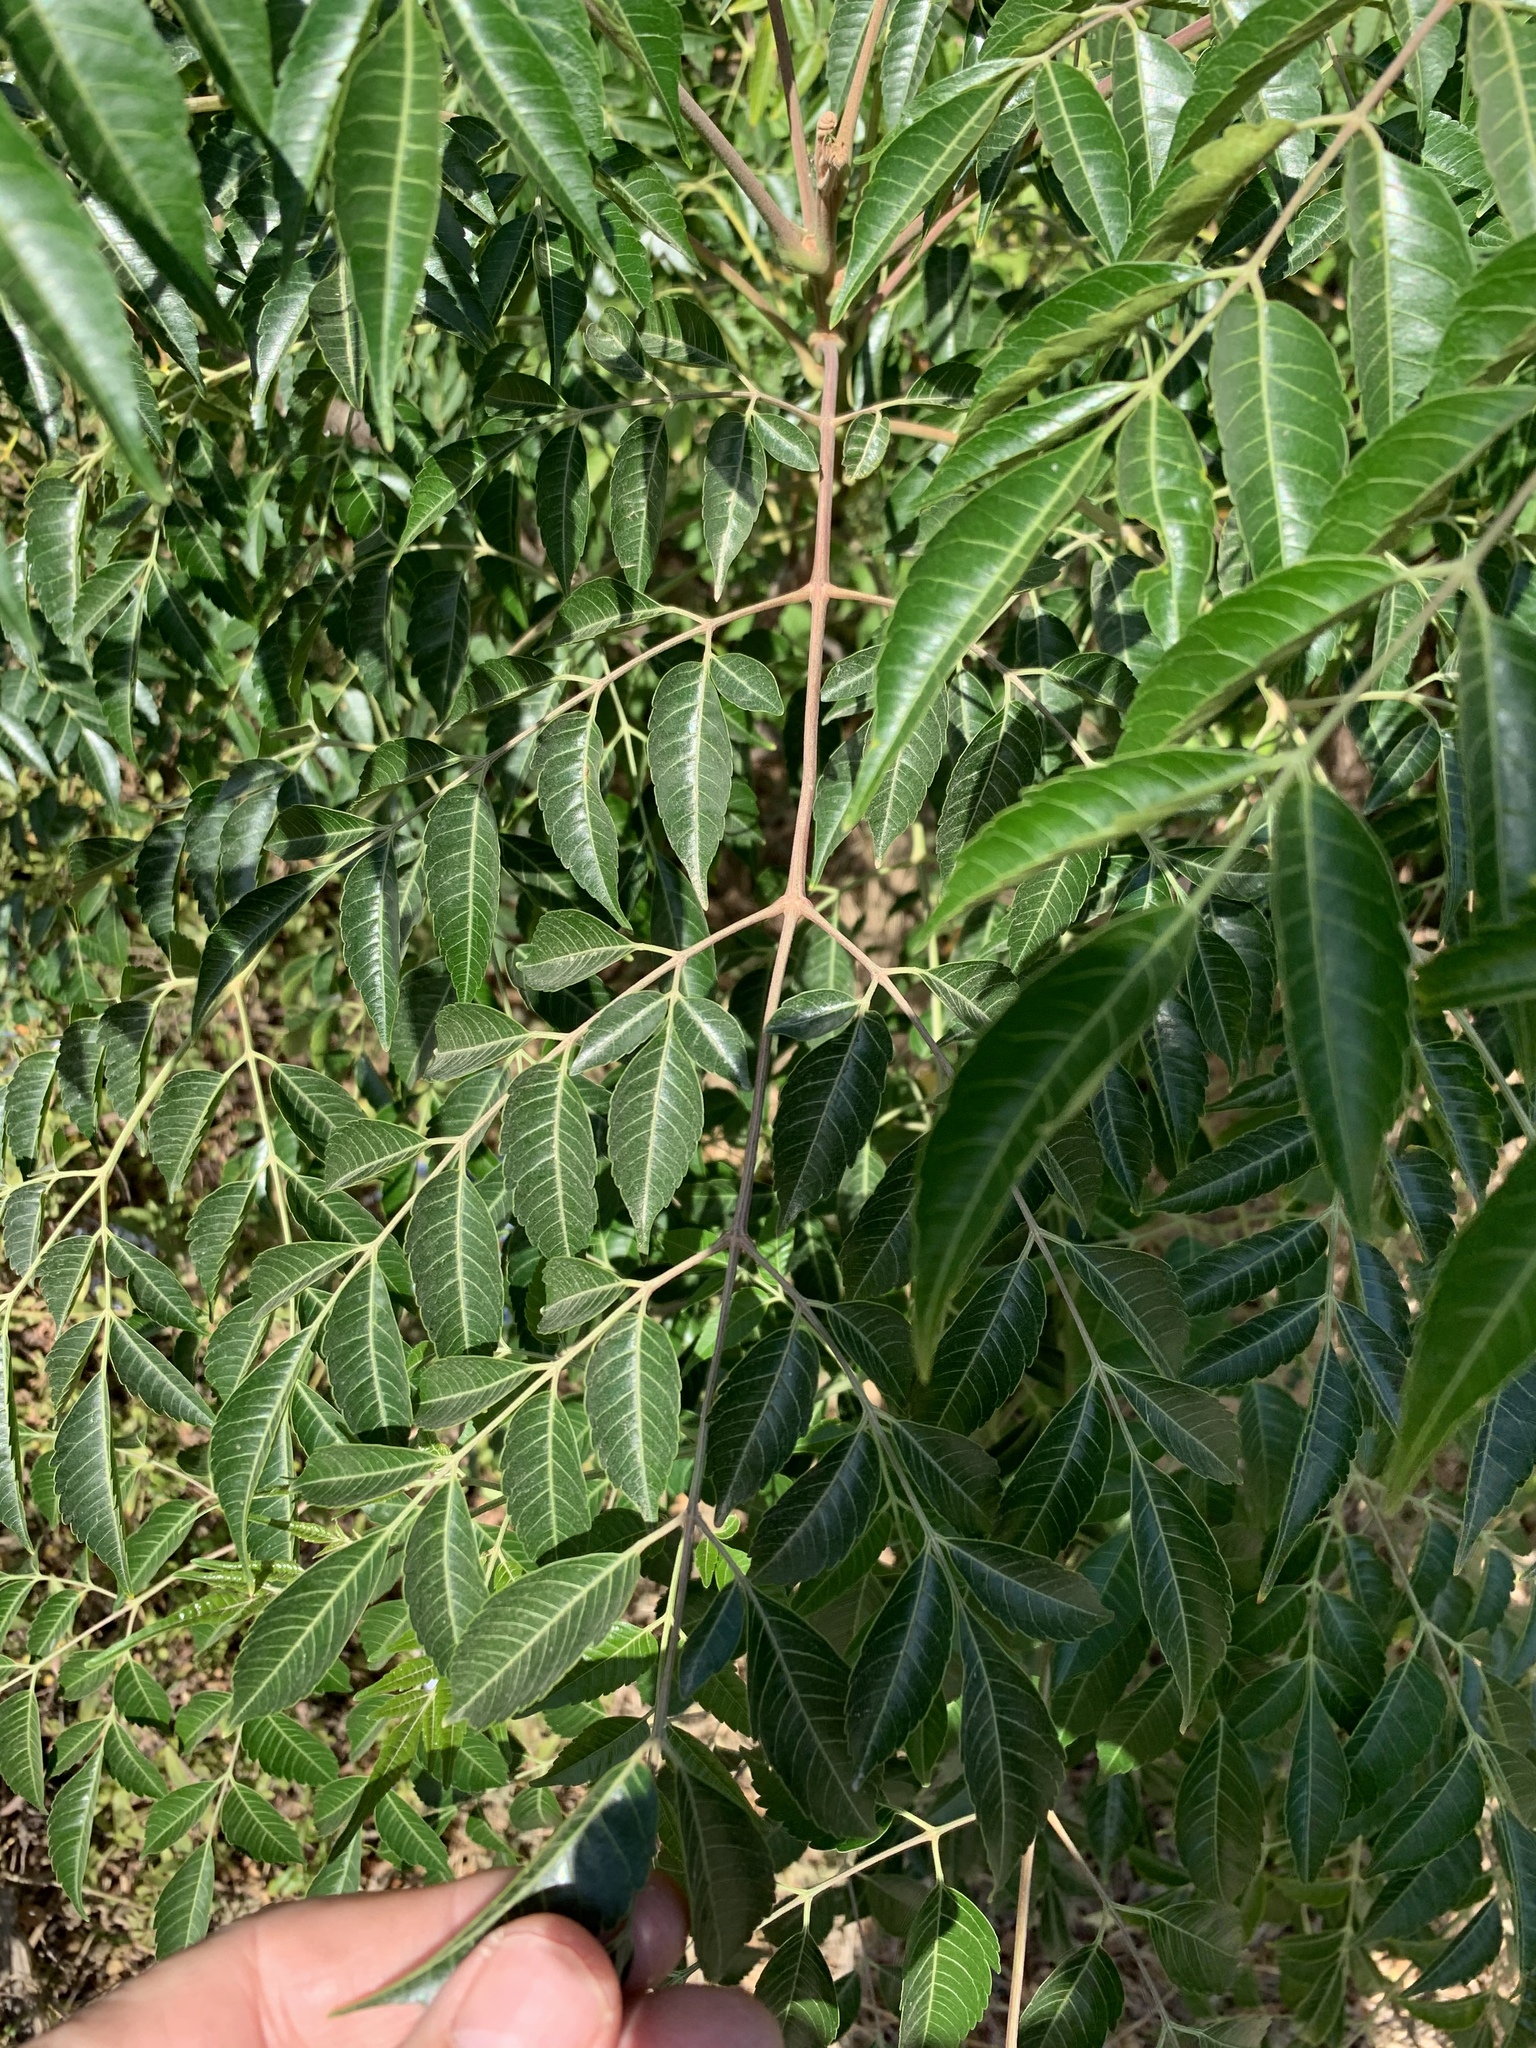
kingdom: Plantae
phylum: Tracheophyta
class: Magnoliopsida
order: Sapindales
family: Meliaceae
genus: Melia
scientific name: Melia azedarach
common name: Chinaberrytree
